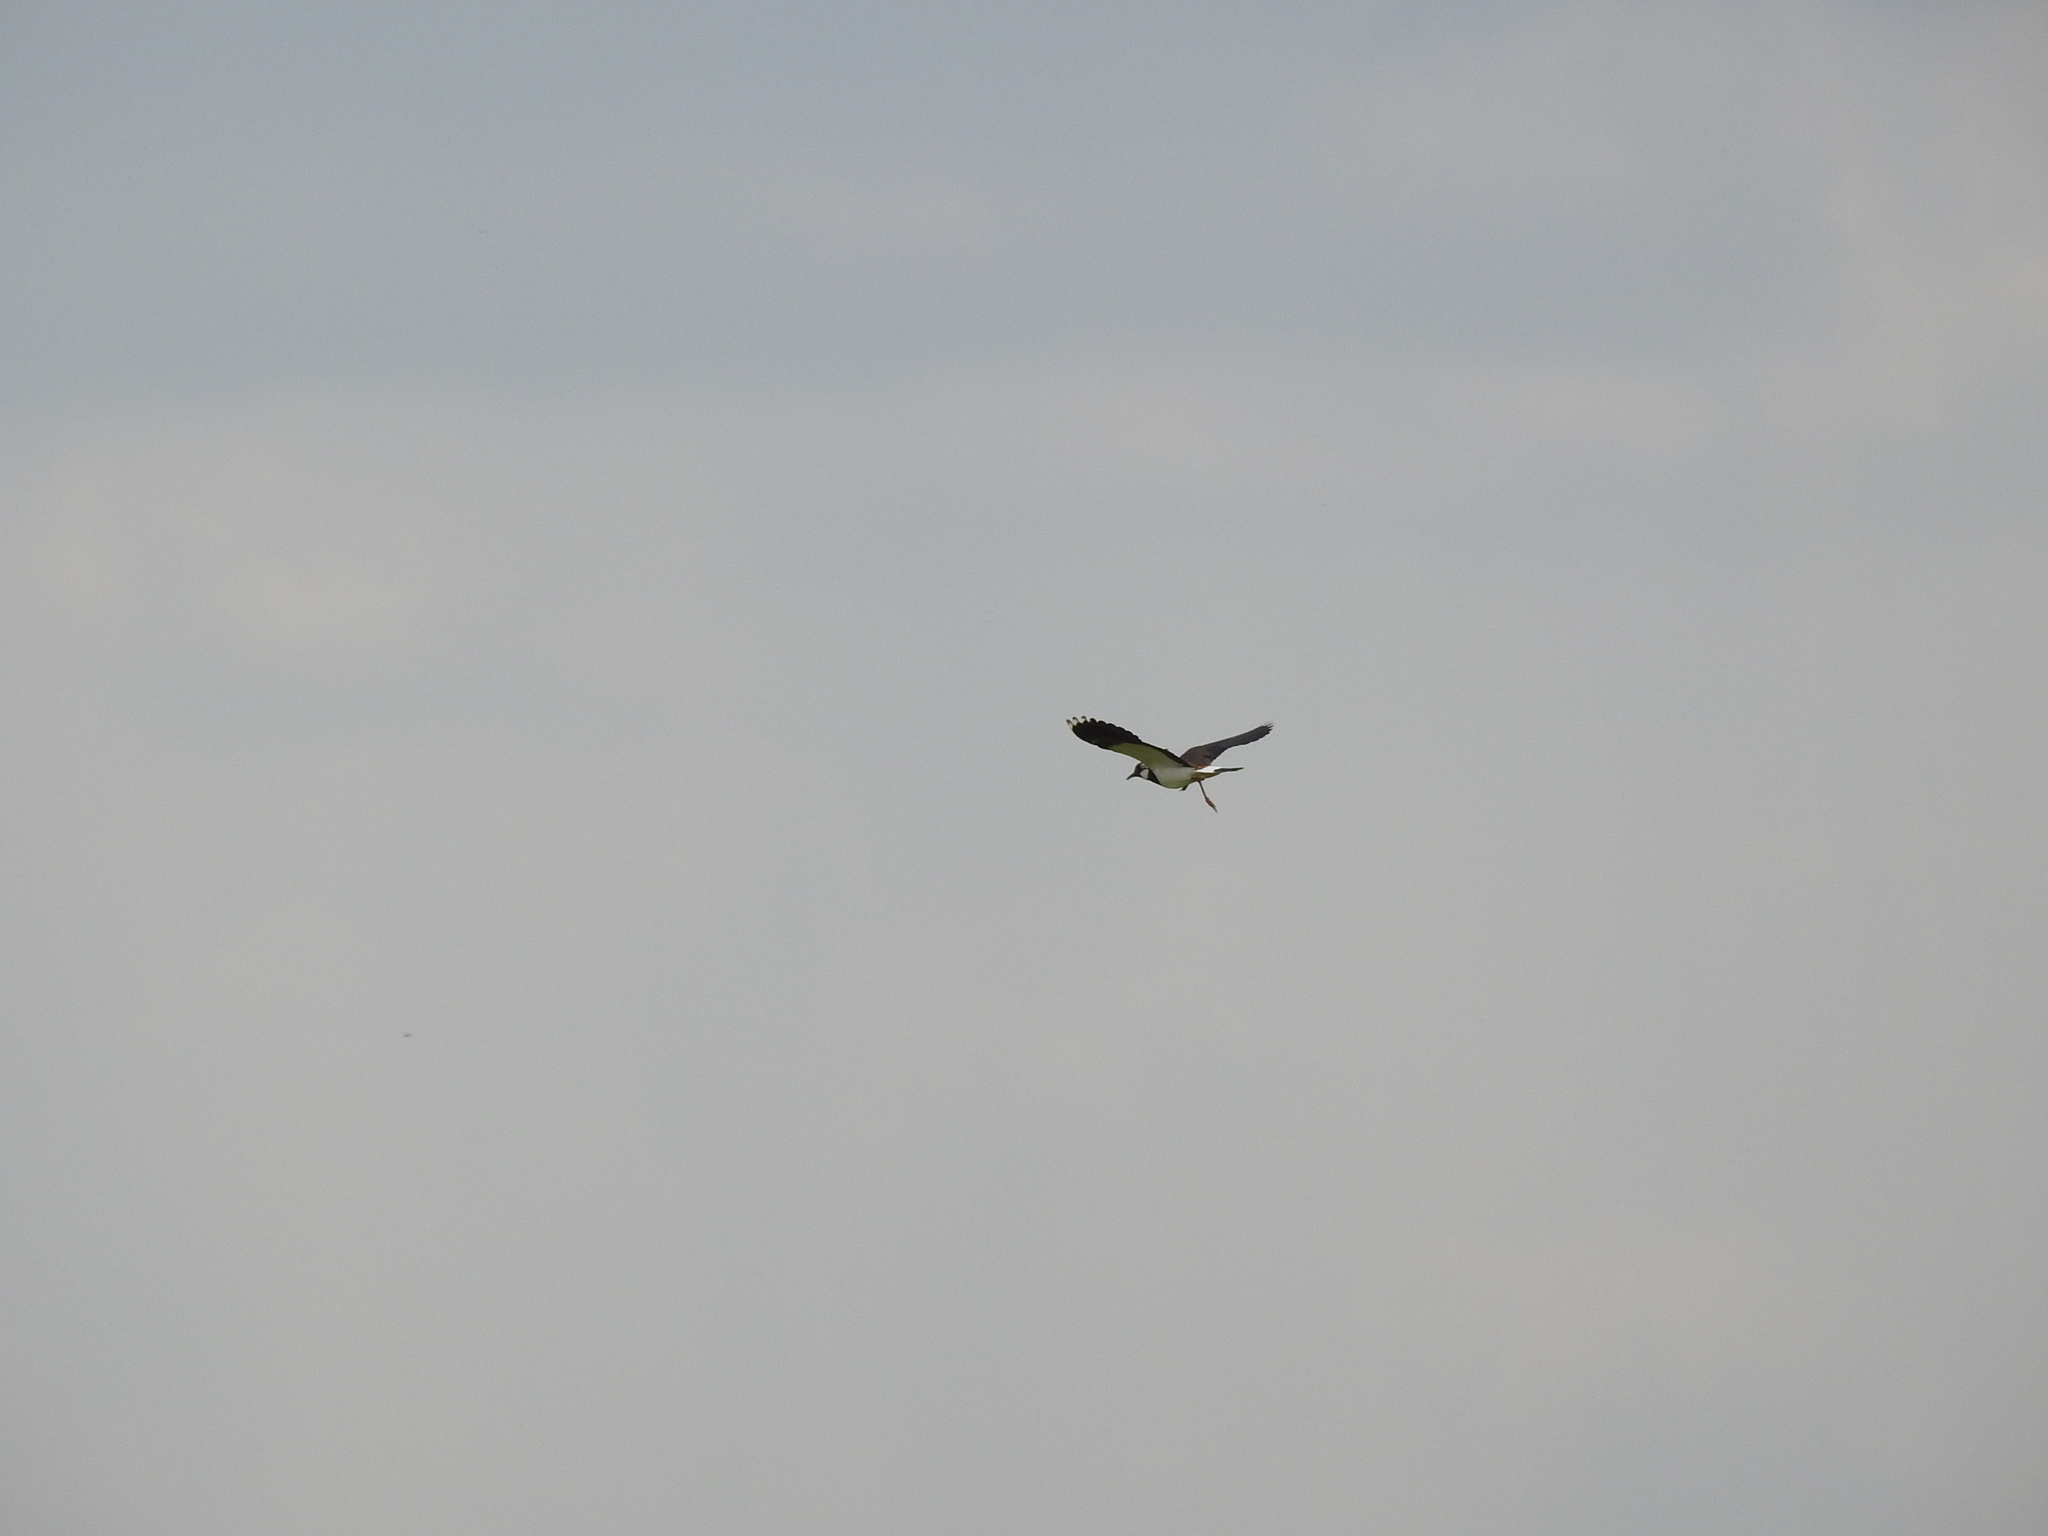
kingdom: Animalia
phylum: Chordata
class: Aves
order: Charadriiformes
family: Charadriidae
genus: Vanellus
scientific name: Vanellus vanellus
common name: Northern lapwing
